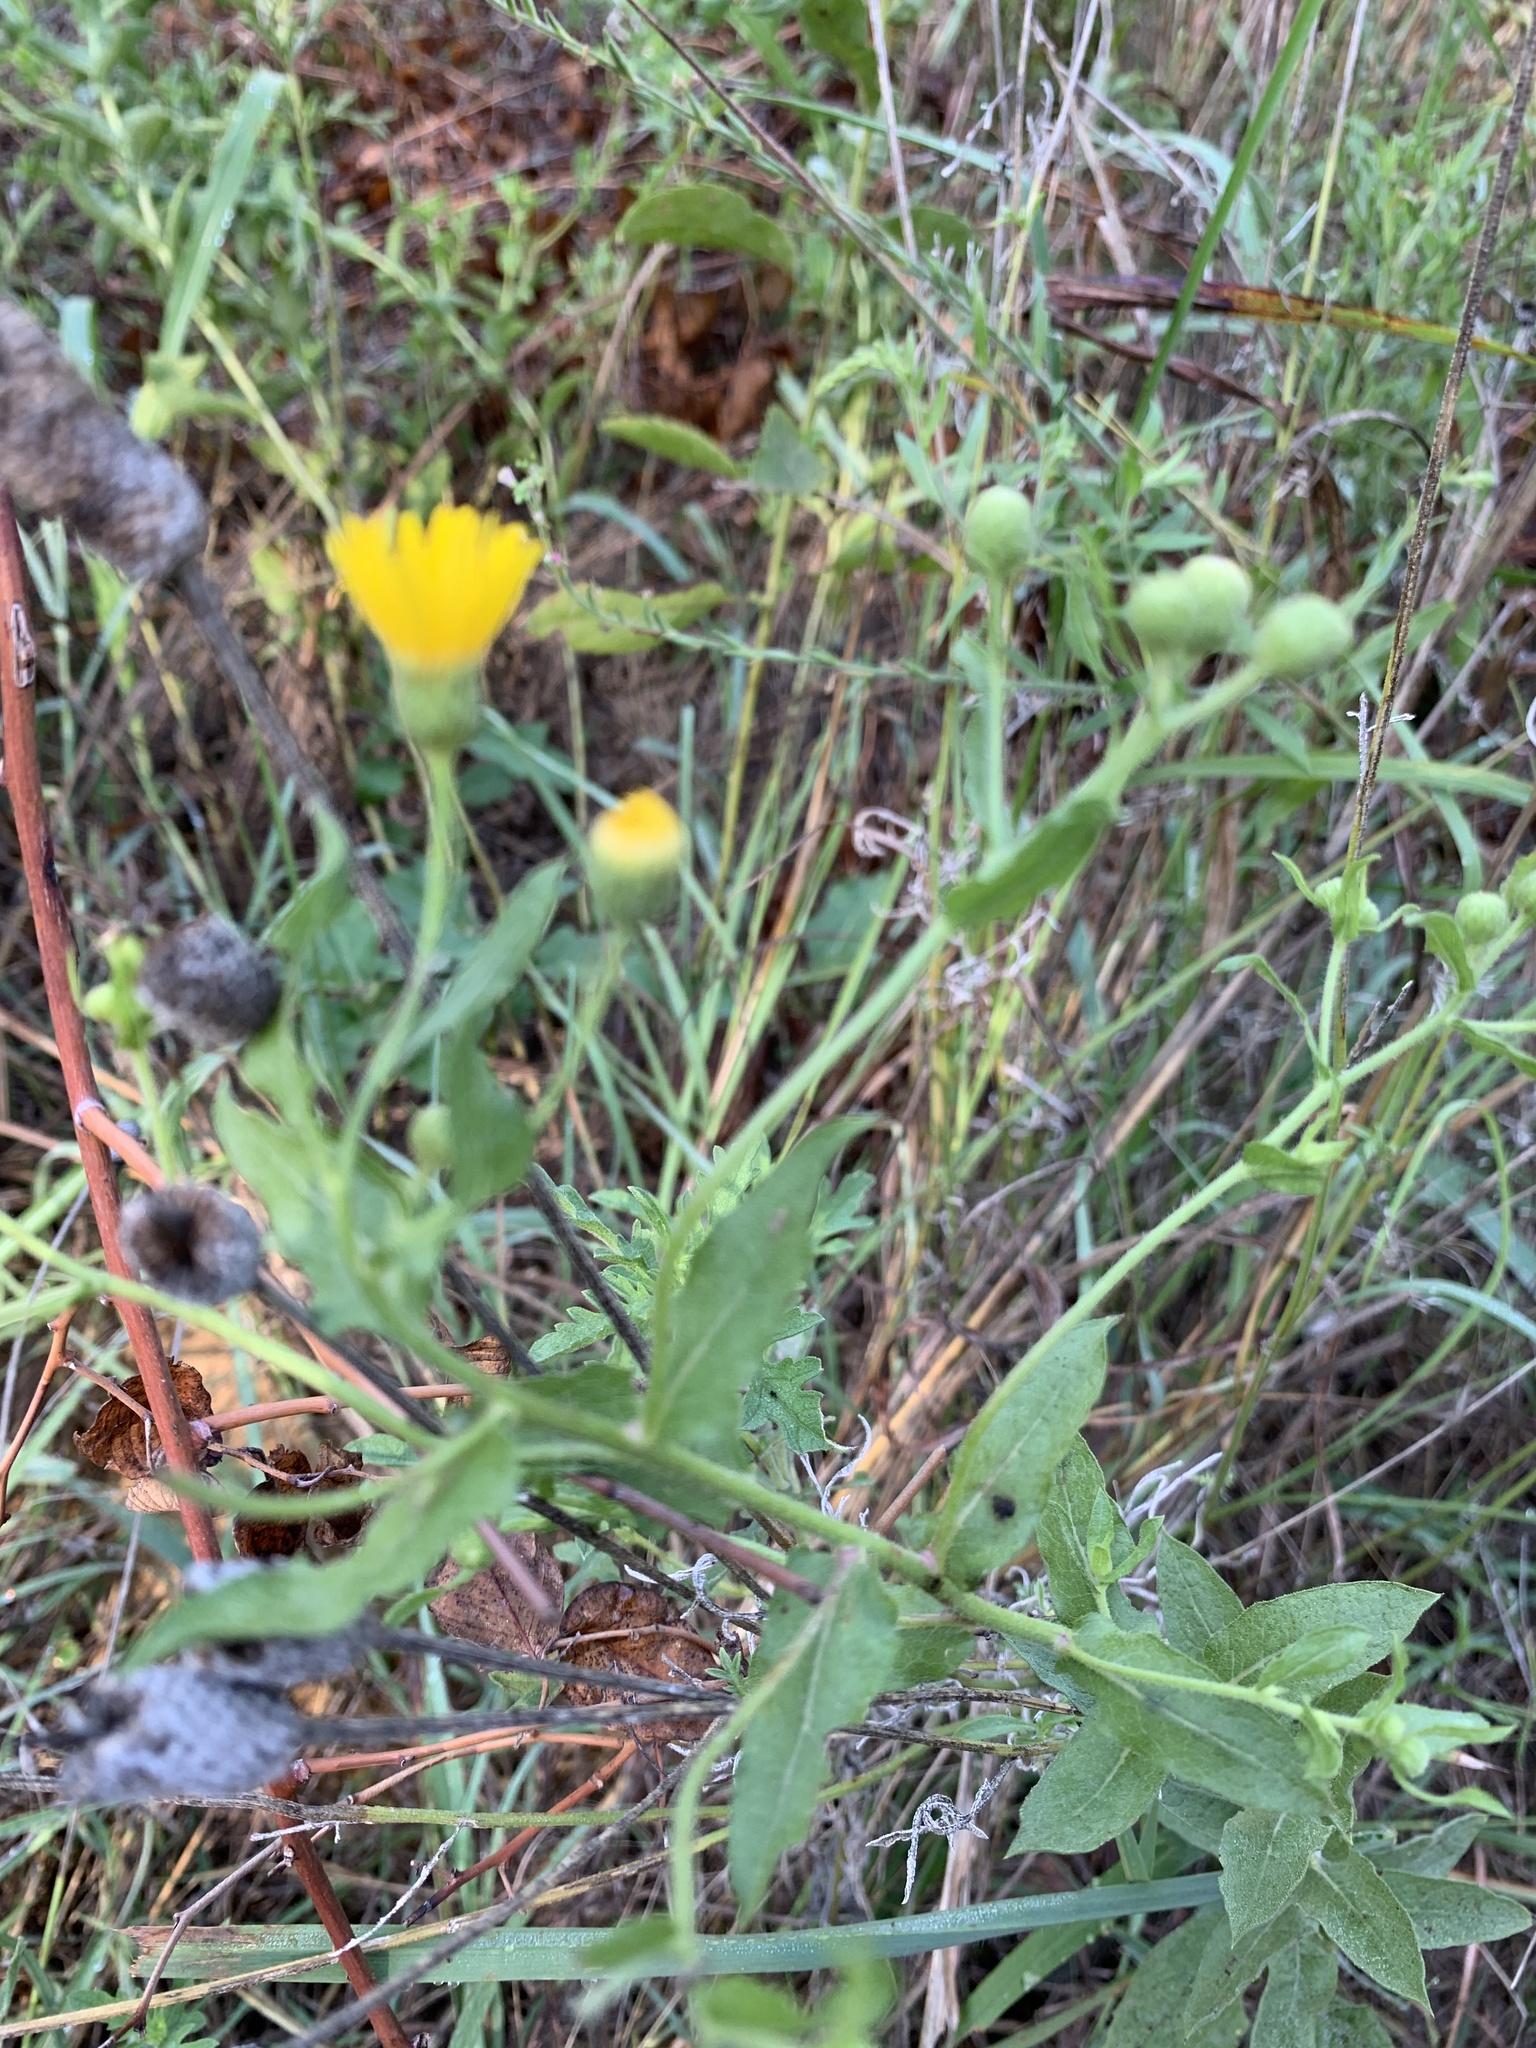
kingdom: Plantae
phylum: Tracheophyta
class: Magnoliopsida
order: Asterales
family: Asteraceae
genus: Heterotheca
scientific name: Heterotheca subaxillaris
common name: Camphorweed
